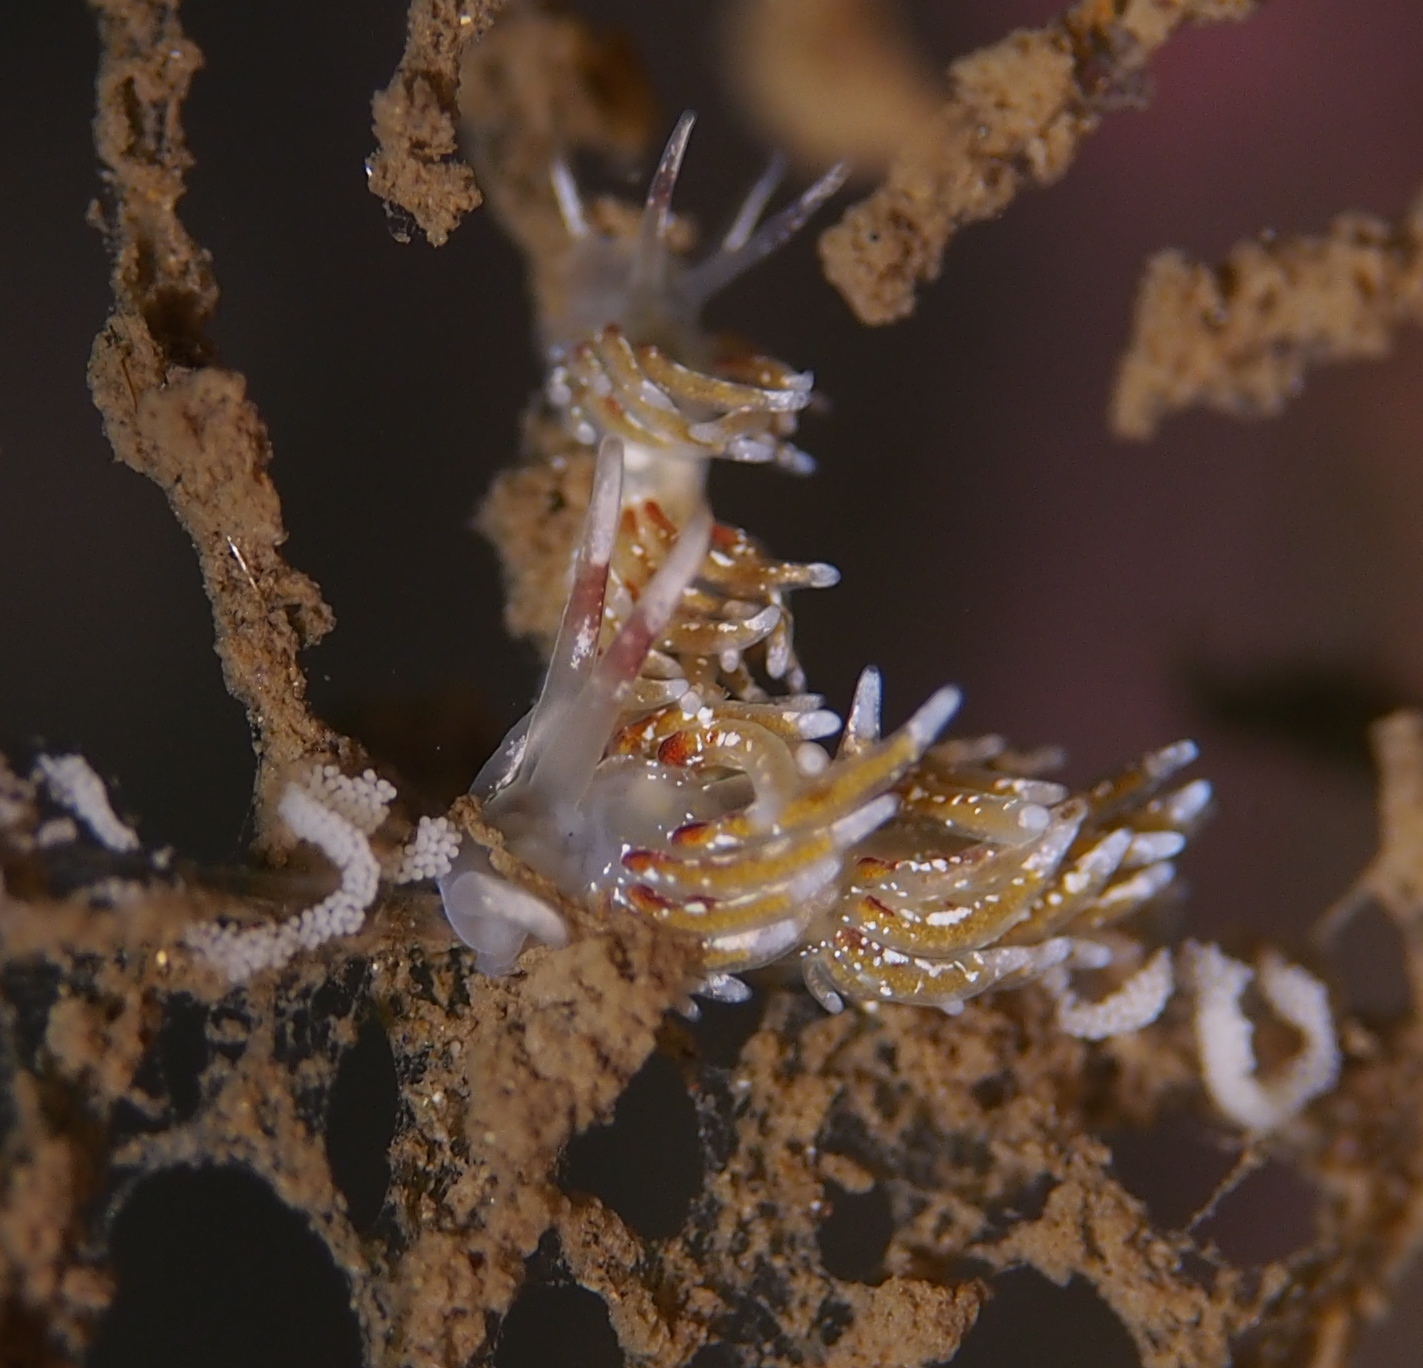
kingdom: Animalia
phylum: Mollusca
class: Gastropoda
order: Nudibranchia
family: Trinchesiidae
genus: Rubramoena
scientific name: Rubramoena rubescens
